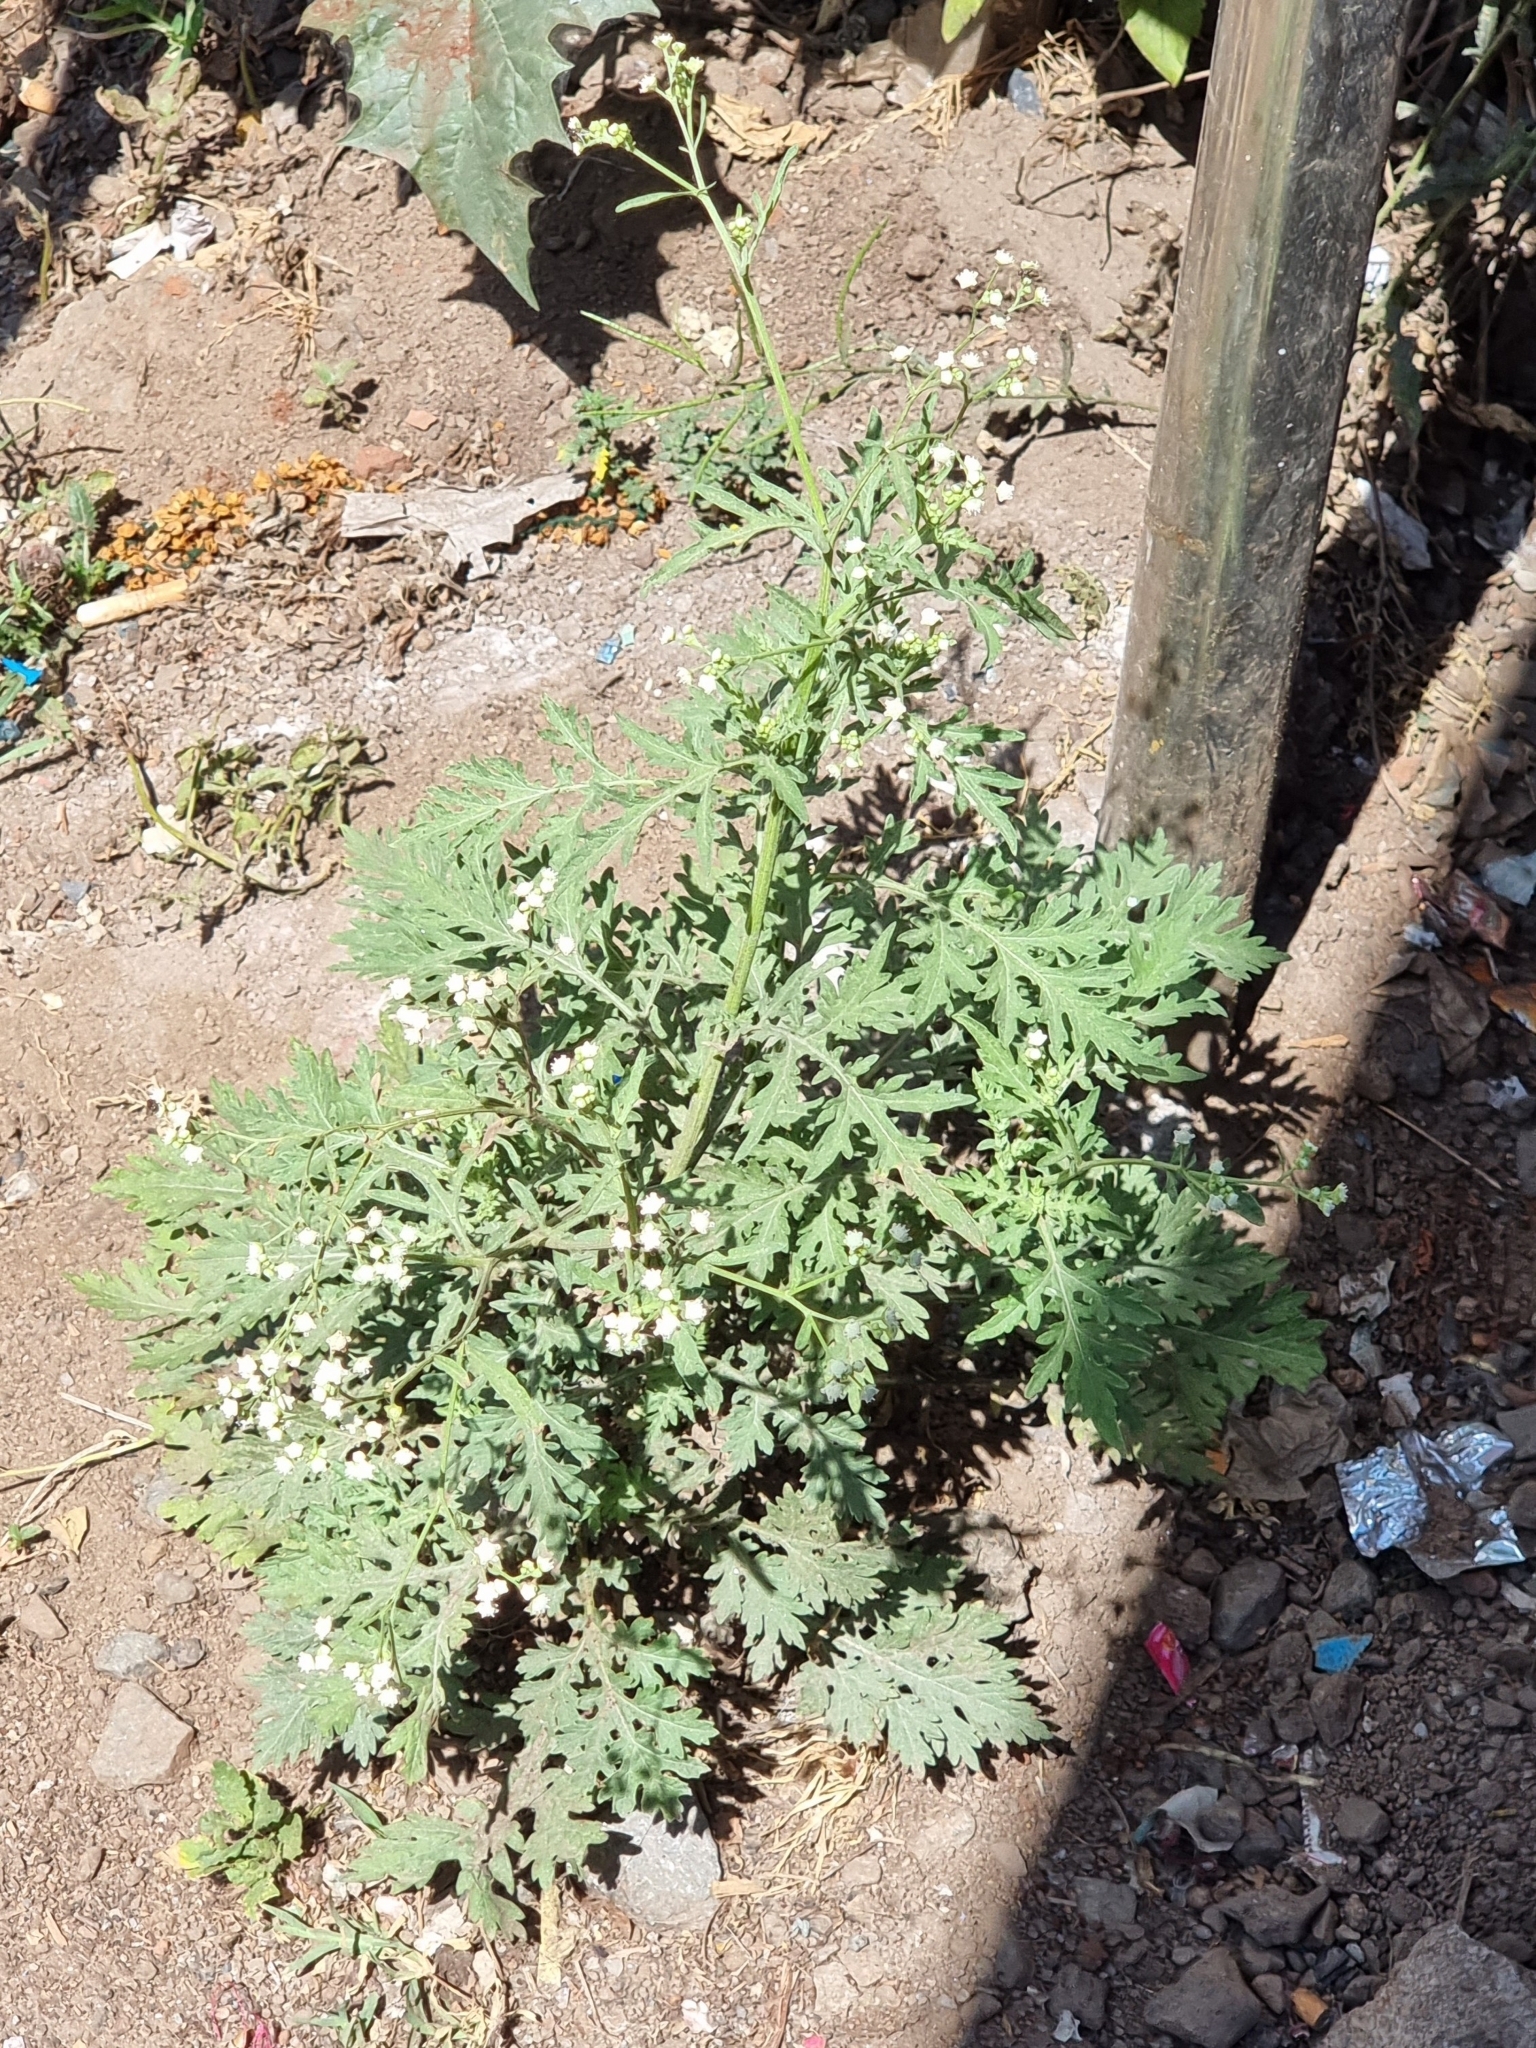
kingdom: Plantae
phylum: Tracheophyta
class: Magnoliopsida
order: Asterales
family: Asteraceae
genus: Parthenium
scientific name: Parthenium hysterophorus
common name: Santa maria feverfew
